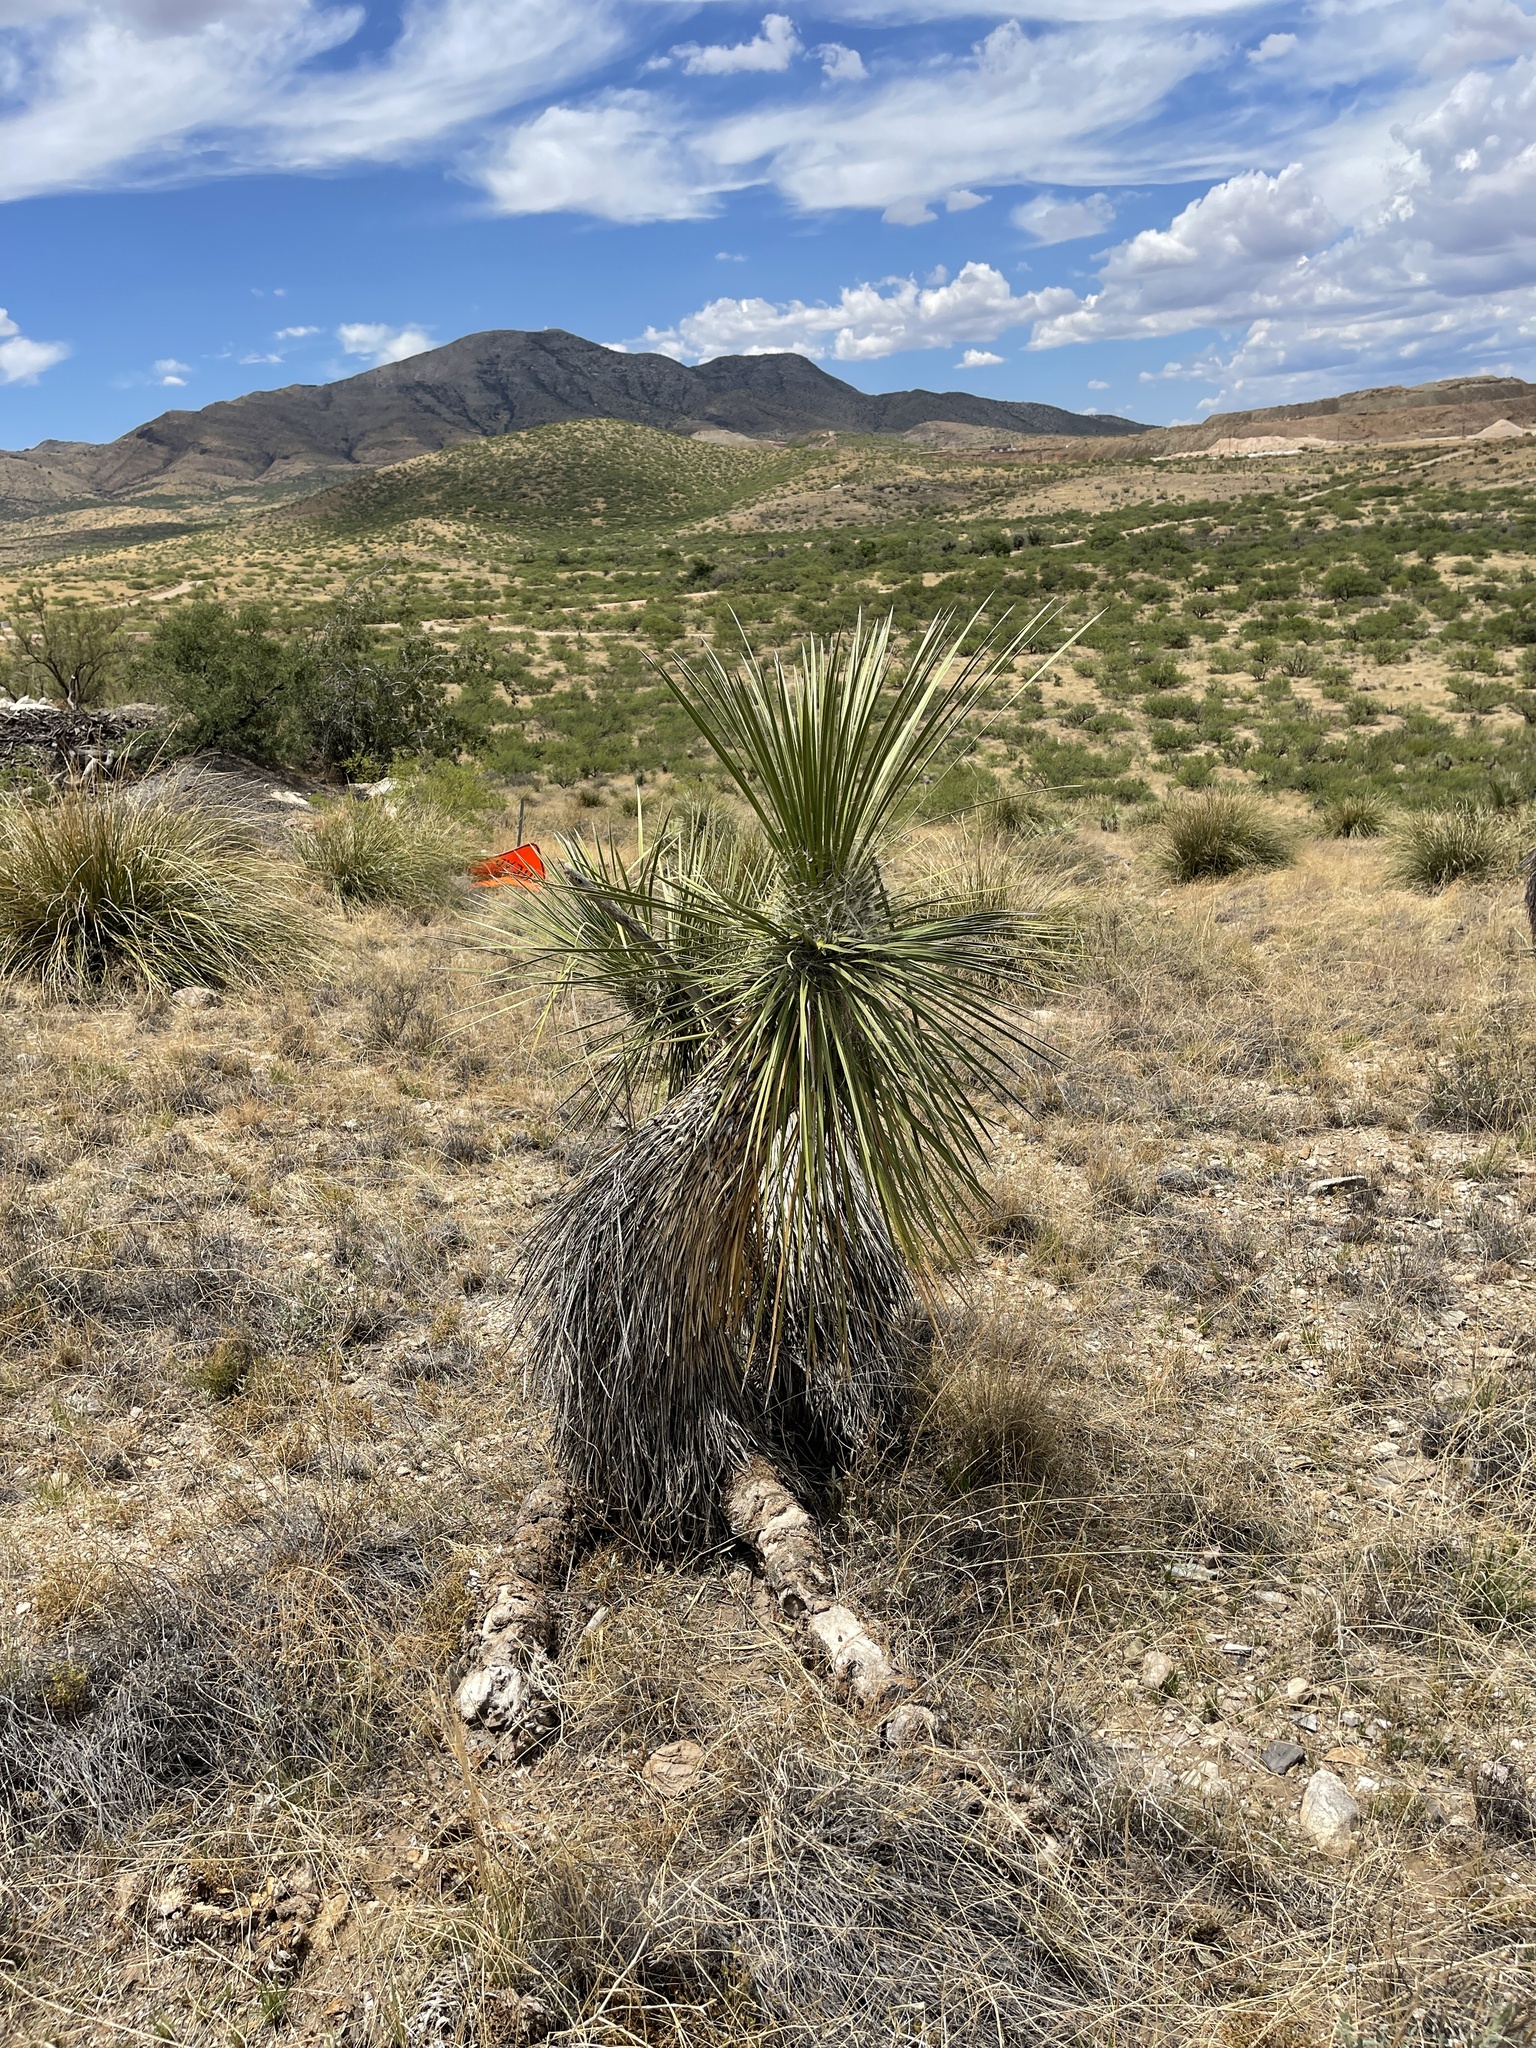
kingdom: Plantae
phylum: Tracheophyta
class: Liliopsida
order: Asparagales
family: Asparagaceae
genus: Yucca
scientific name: Yucca elata
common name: Palmella
